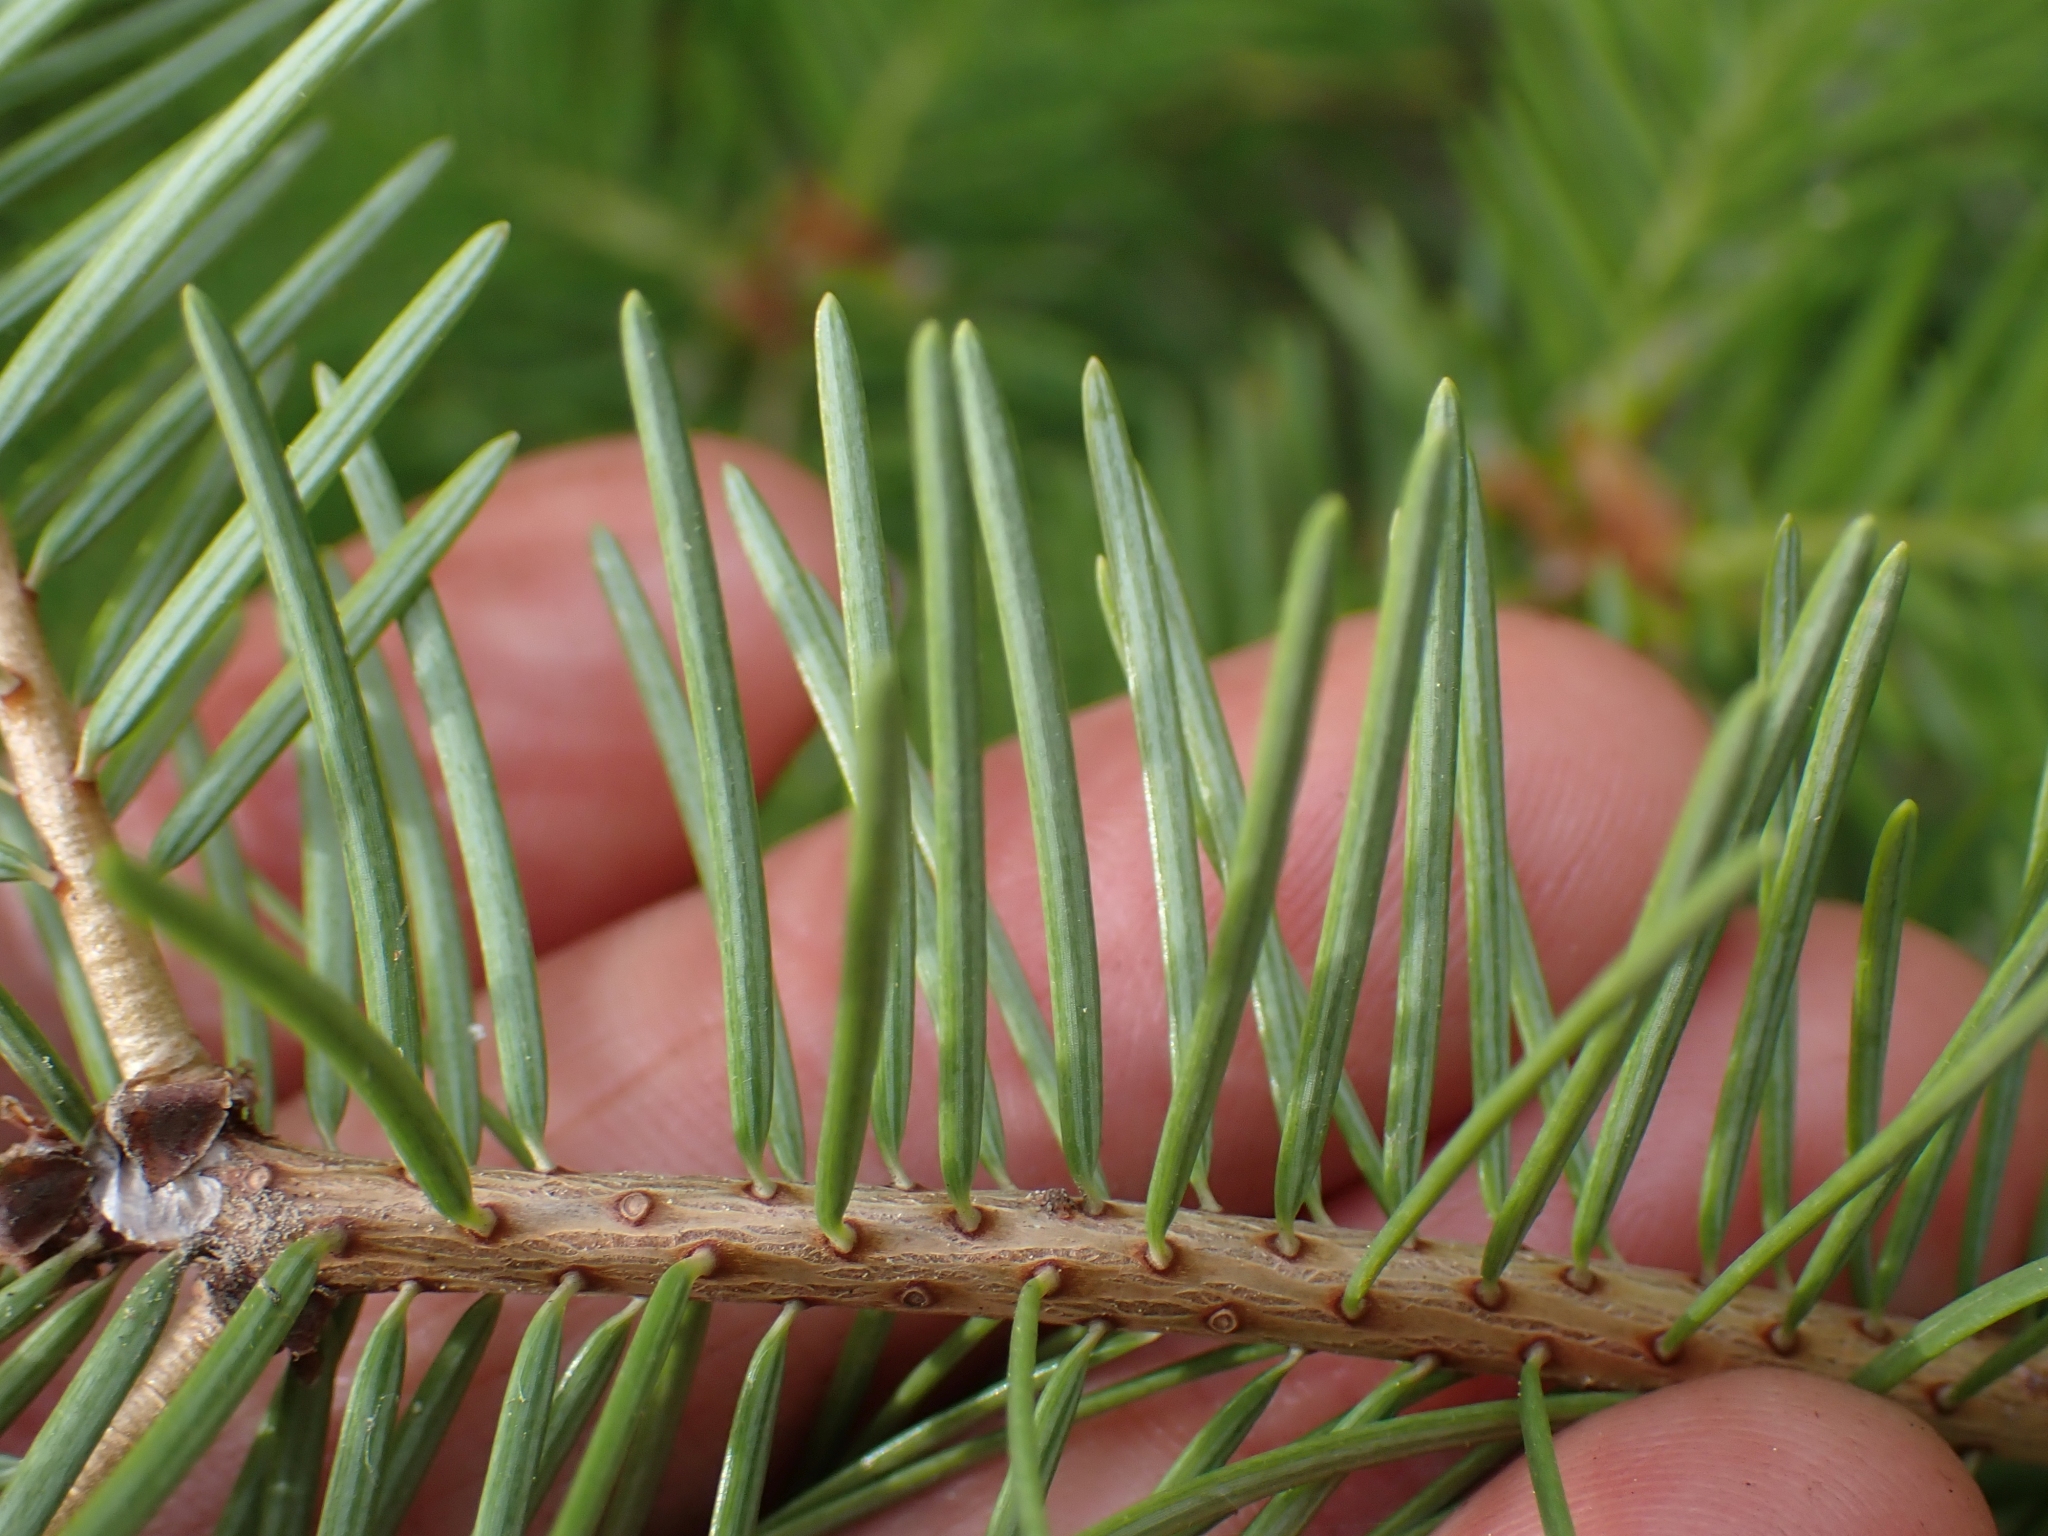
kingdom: Plantae
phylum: Tracheophyta
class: Pinopsida
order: Pinales
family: Pinaceae
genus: Pseudotsuga
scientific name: Pseudotsuga menziesii
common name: Douglas fir
